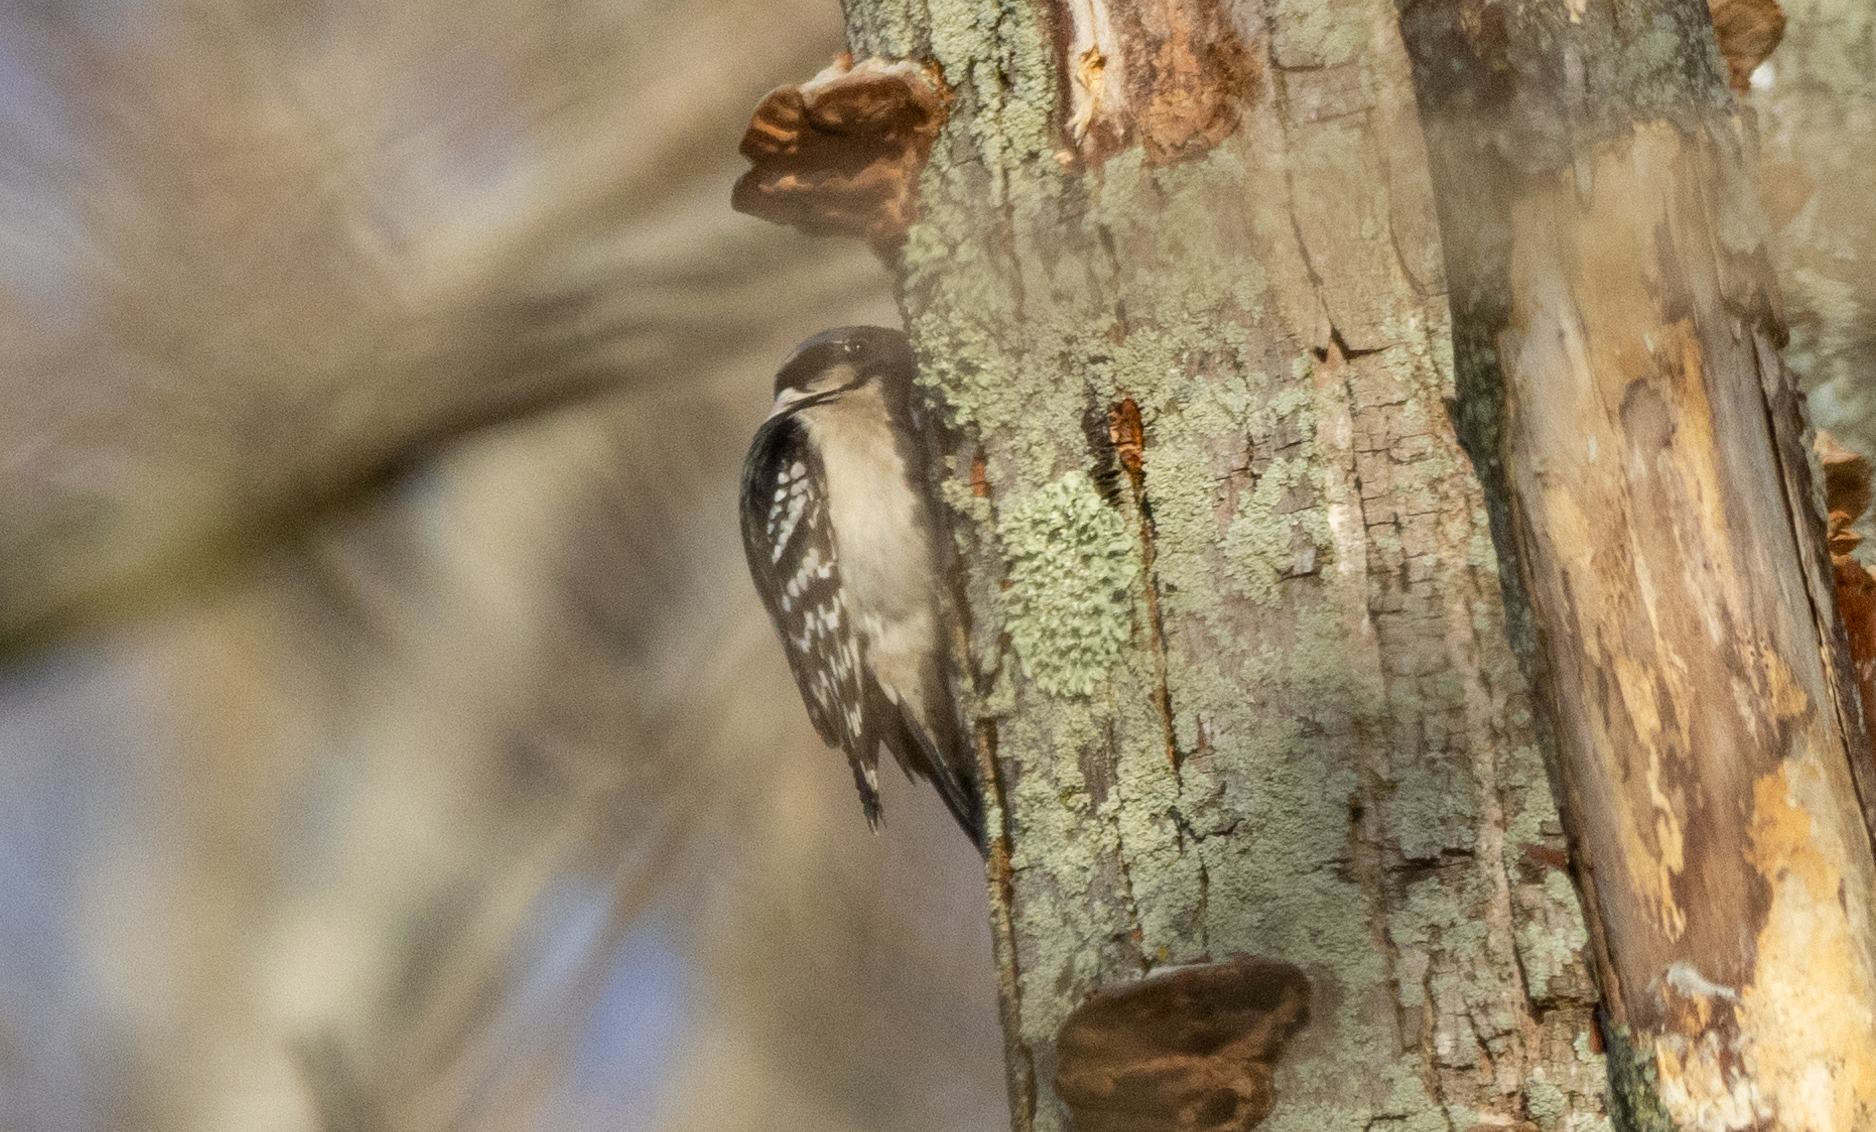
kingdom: Animalia
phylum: Chordata
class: Aves
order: Piciformes
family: Picidae
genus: Dryobates
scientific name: Dryobates pubescens
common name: Downy woodpecker
